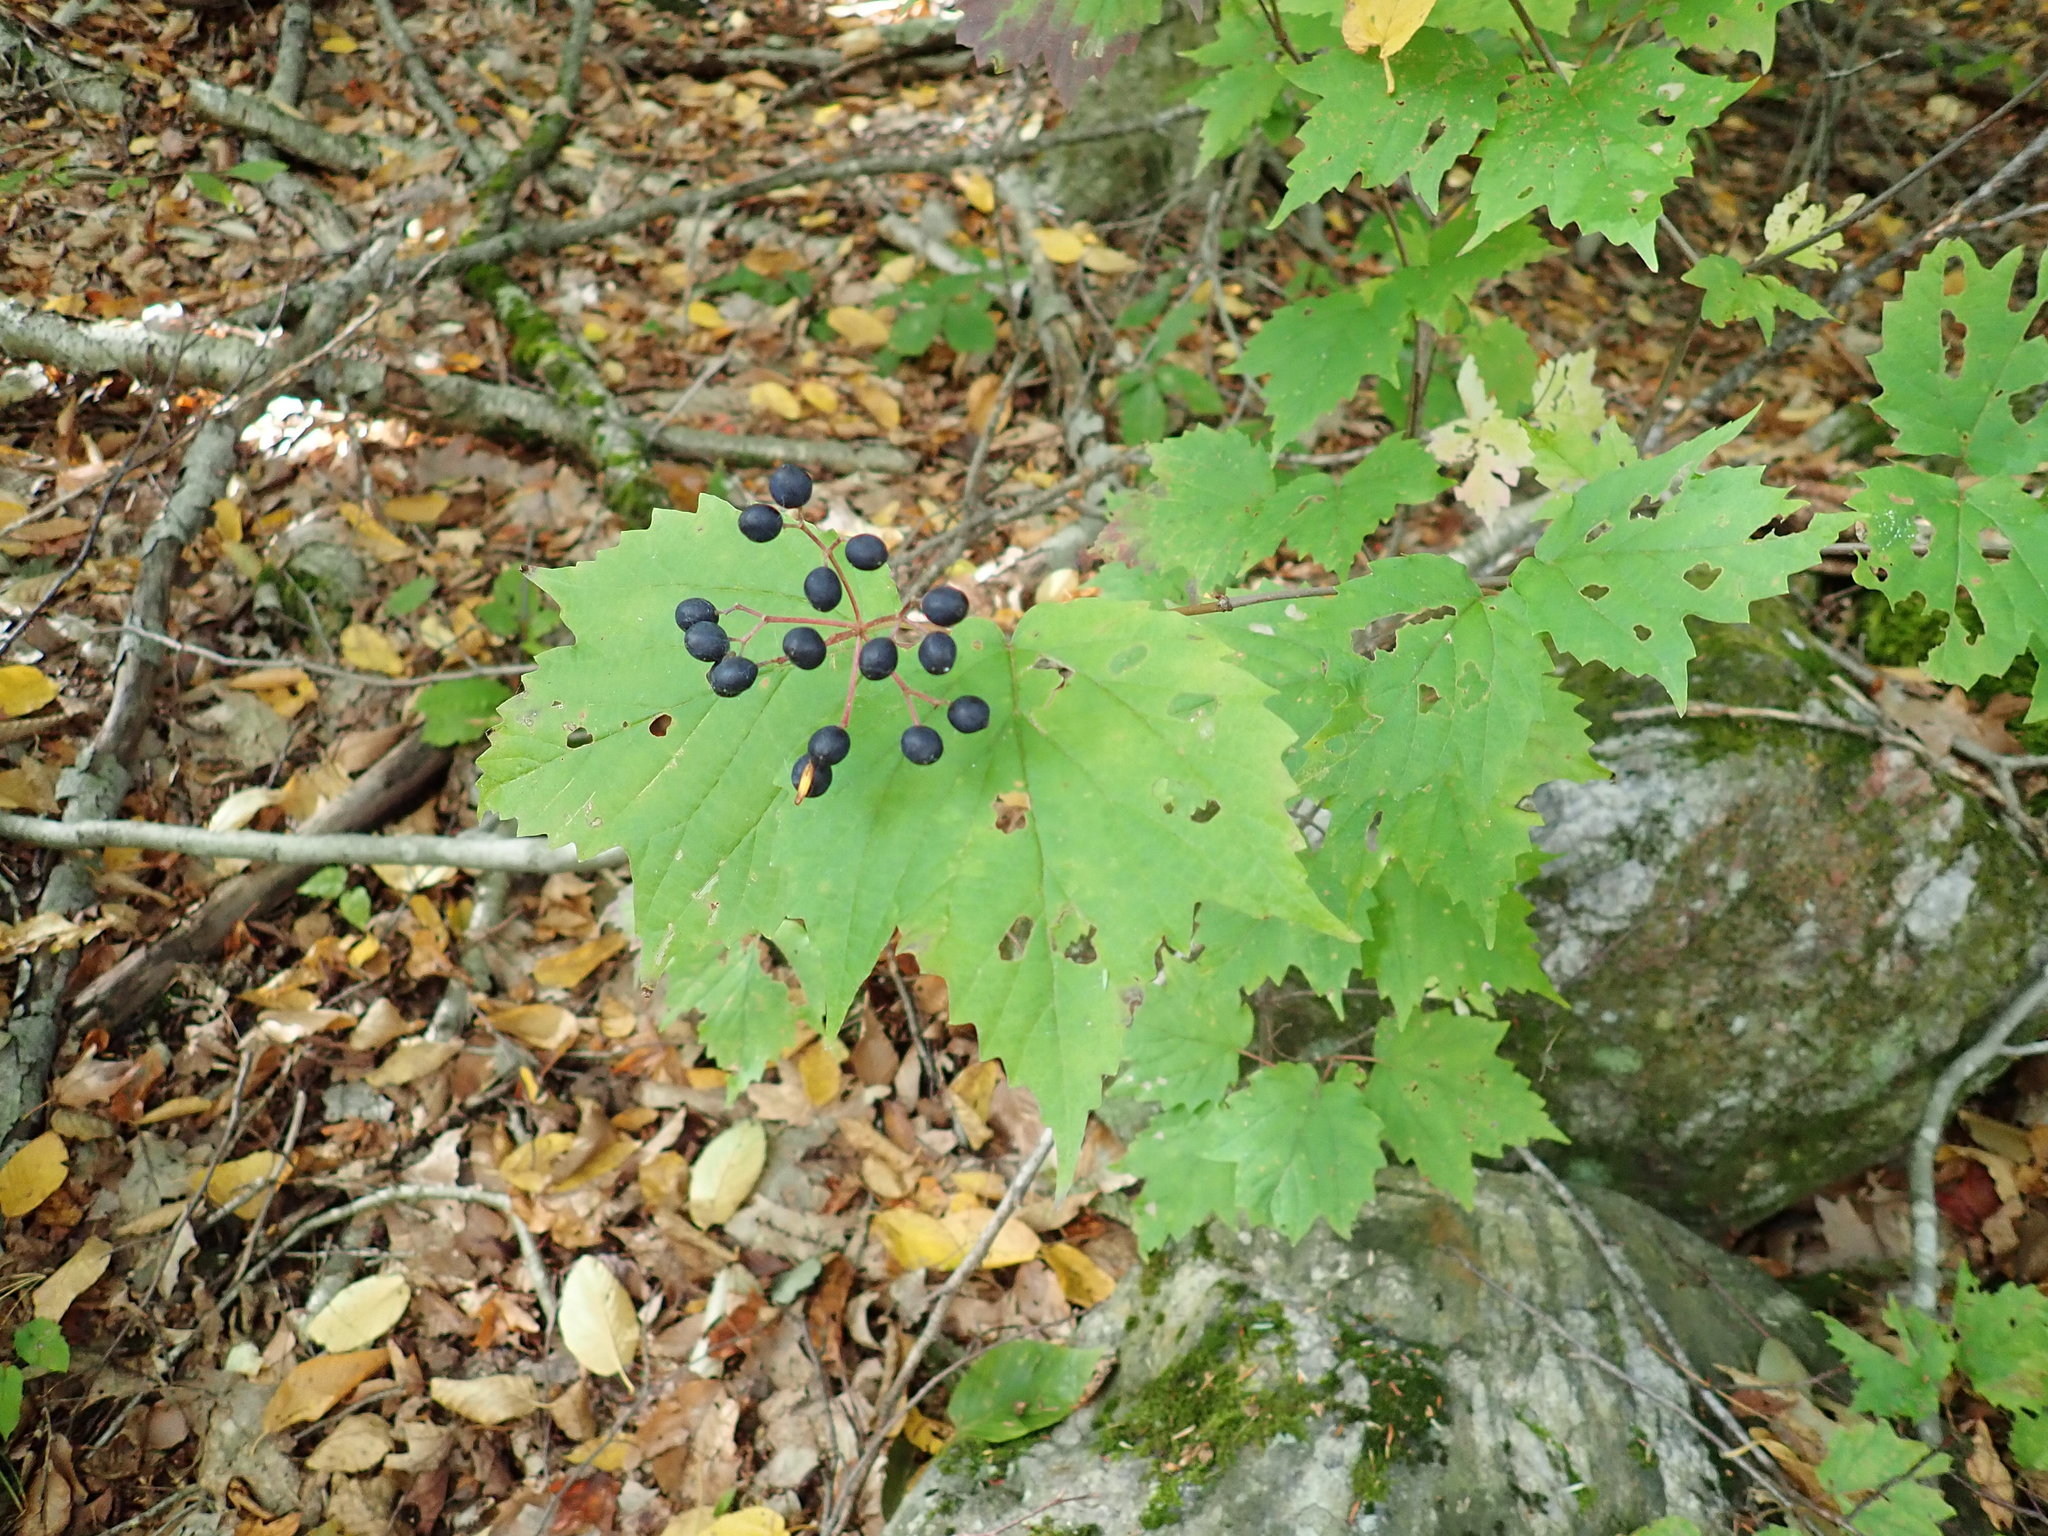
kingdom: Plantae
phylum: Tracheophyta
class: Magnoliopsida
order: Dipsacales
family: Viburnaceae
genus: Viburnum
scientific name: Viburnum acerifolium
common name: Dockmackie
